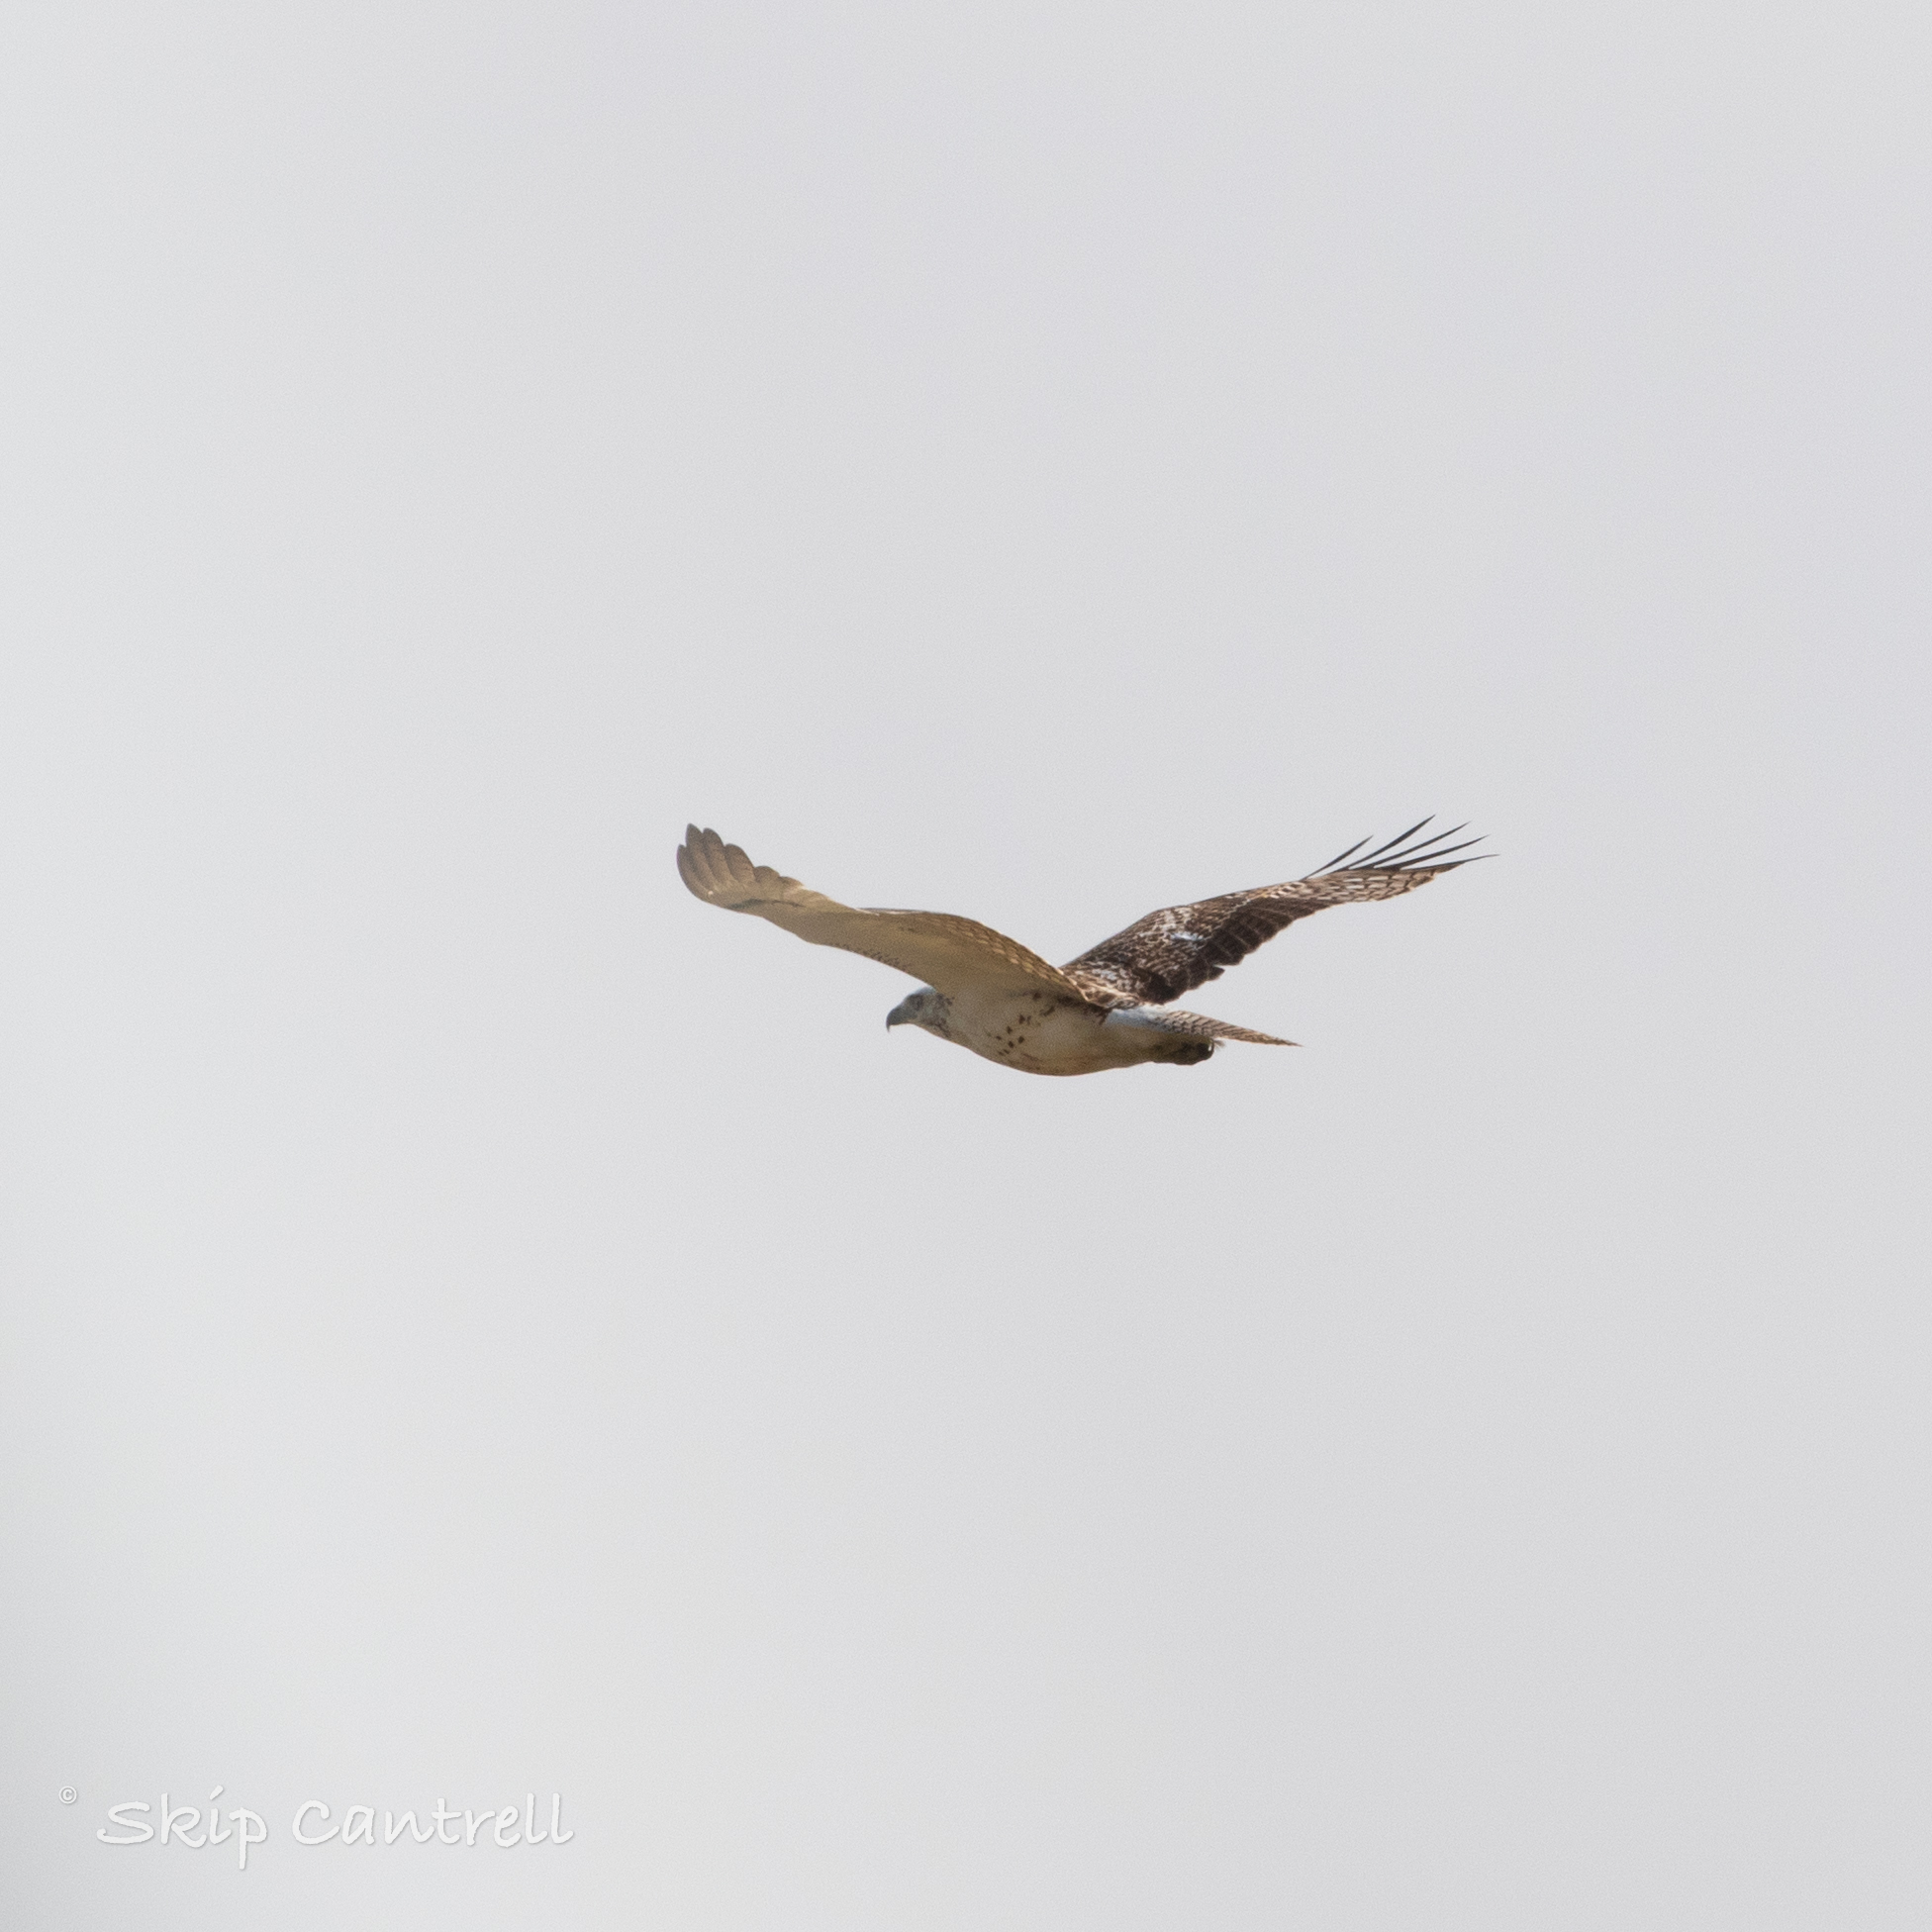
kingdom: Animalia
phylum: Chordata
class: Aves
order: Accipitriformes
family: Accipitridae
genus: Buteo
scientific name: Buteo jamaicensis
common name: Red-tailed hawk
